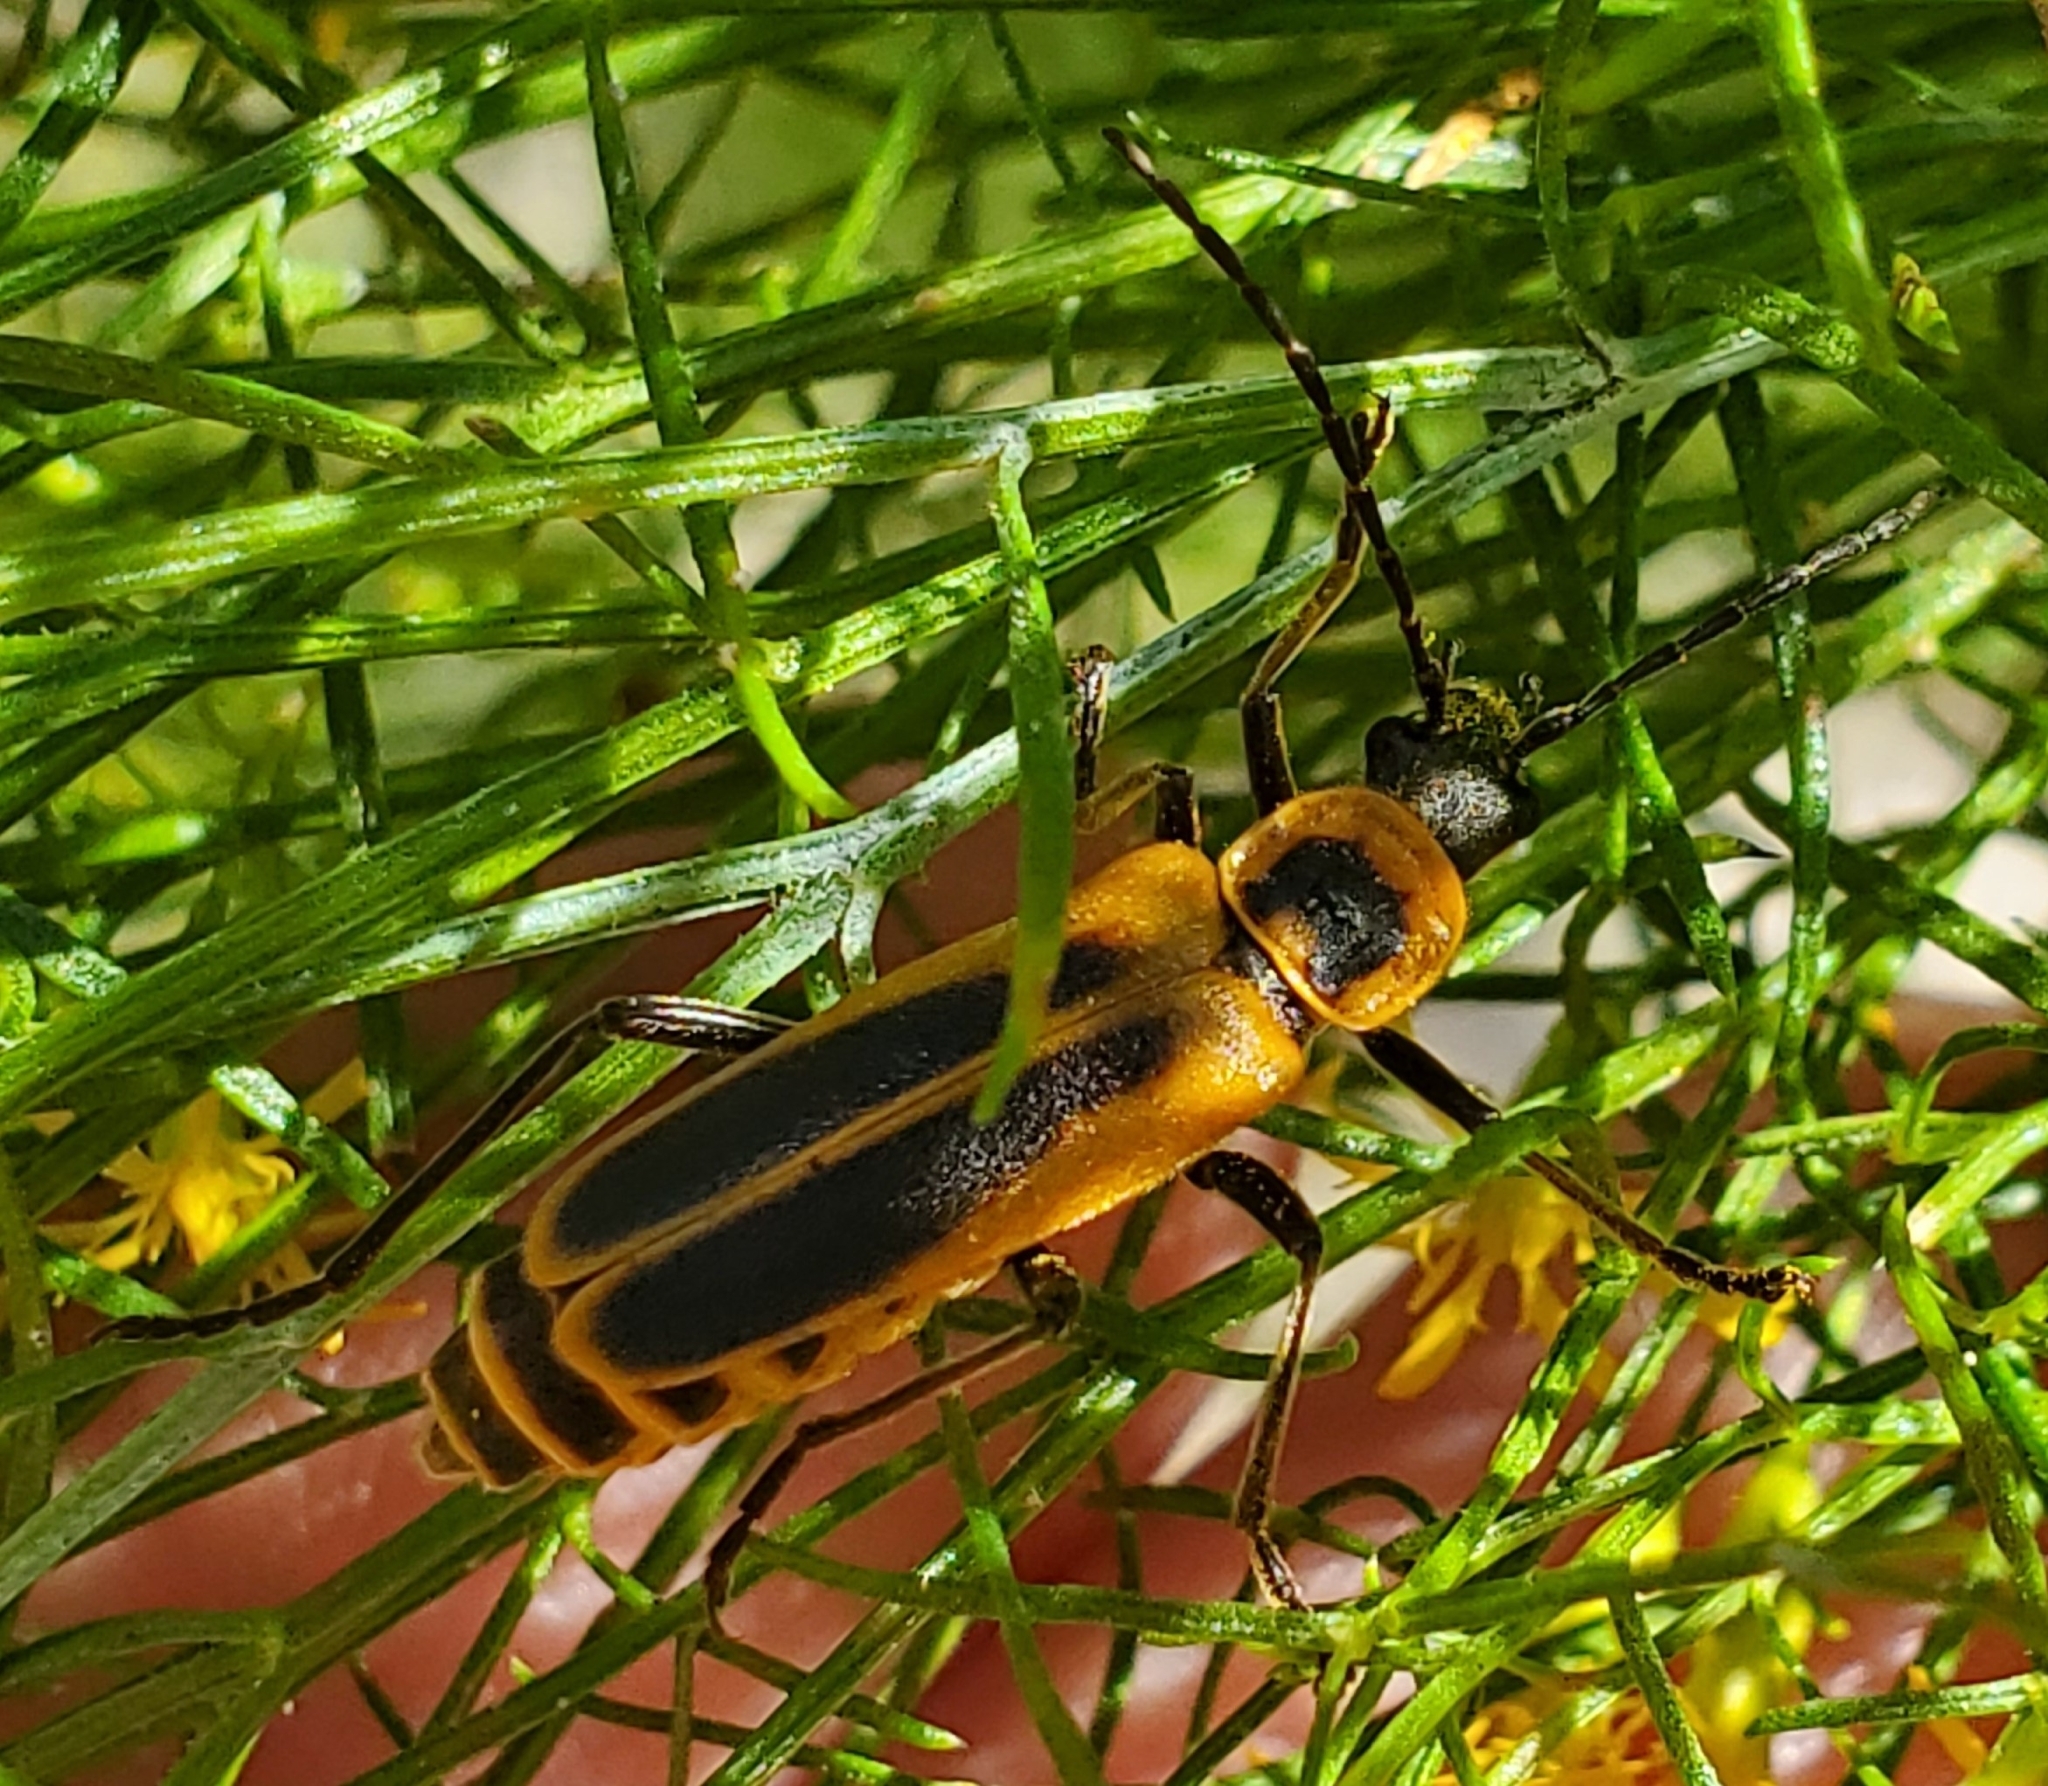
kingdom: Animalia
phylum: Arthropoda
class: Insecta
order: Coleoptera
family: Cantharidae
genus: Chauliognathus
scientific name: Chauliognathus pensylvanicus
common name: Goldenrod soldier beetle
